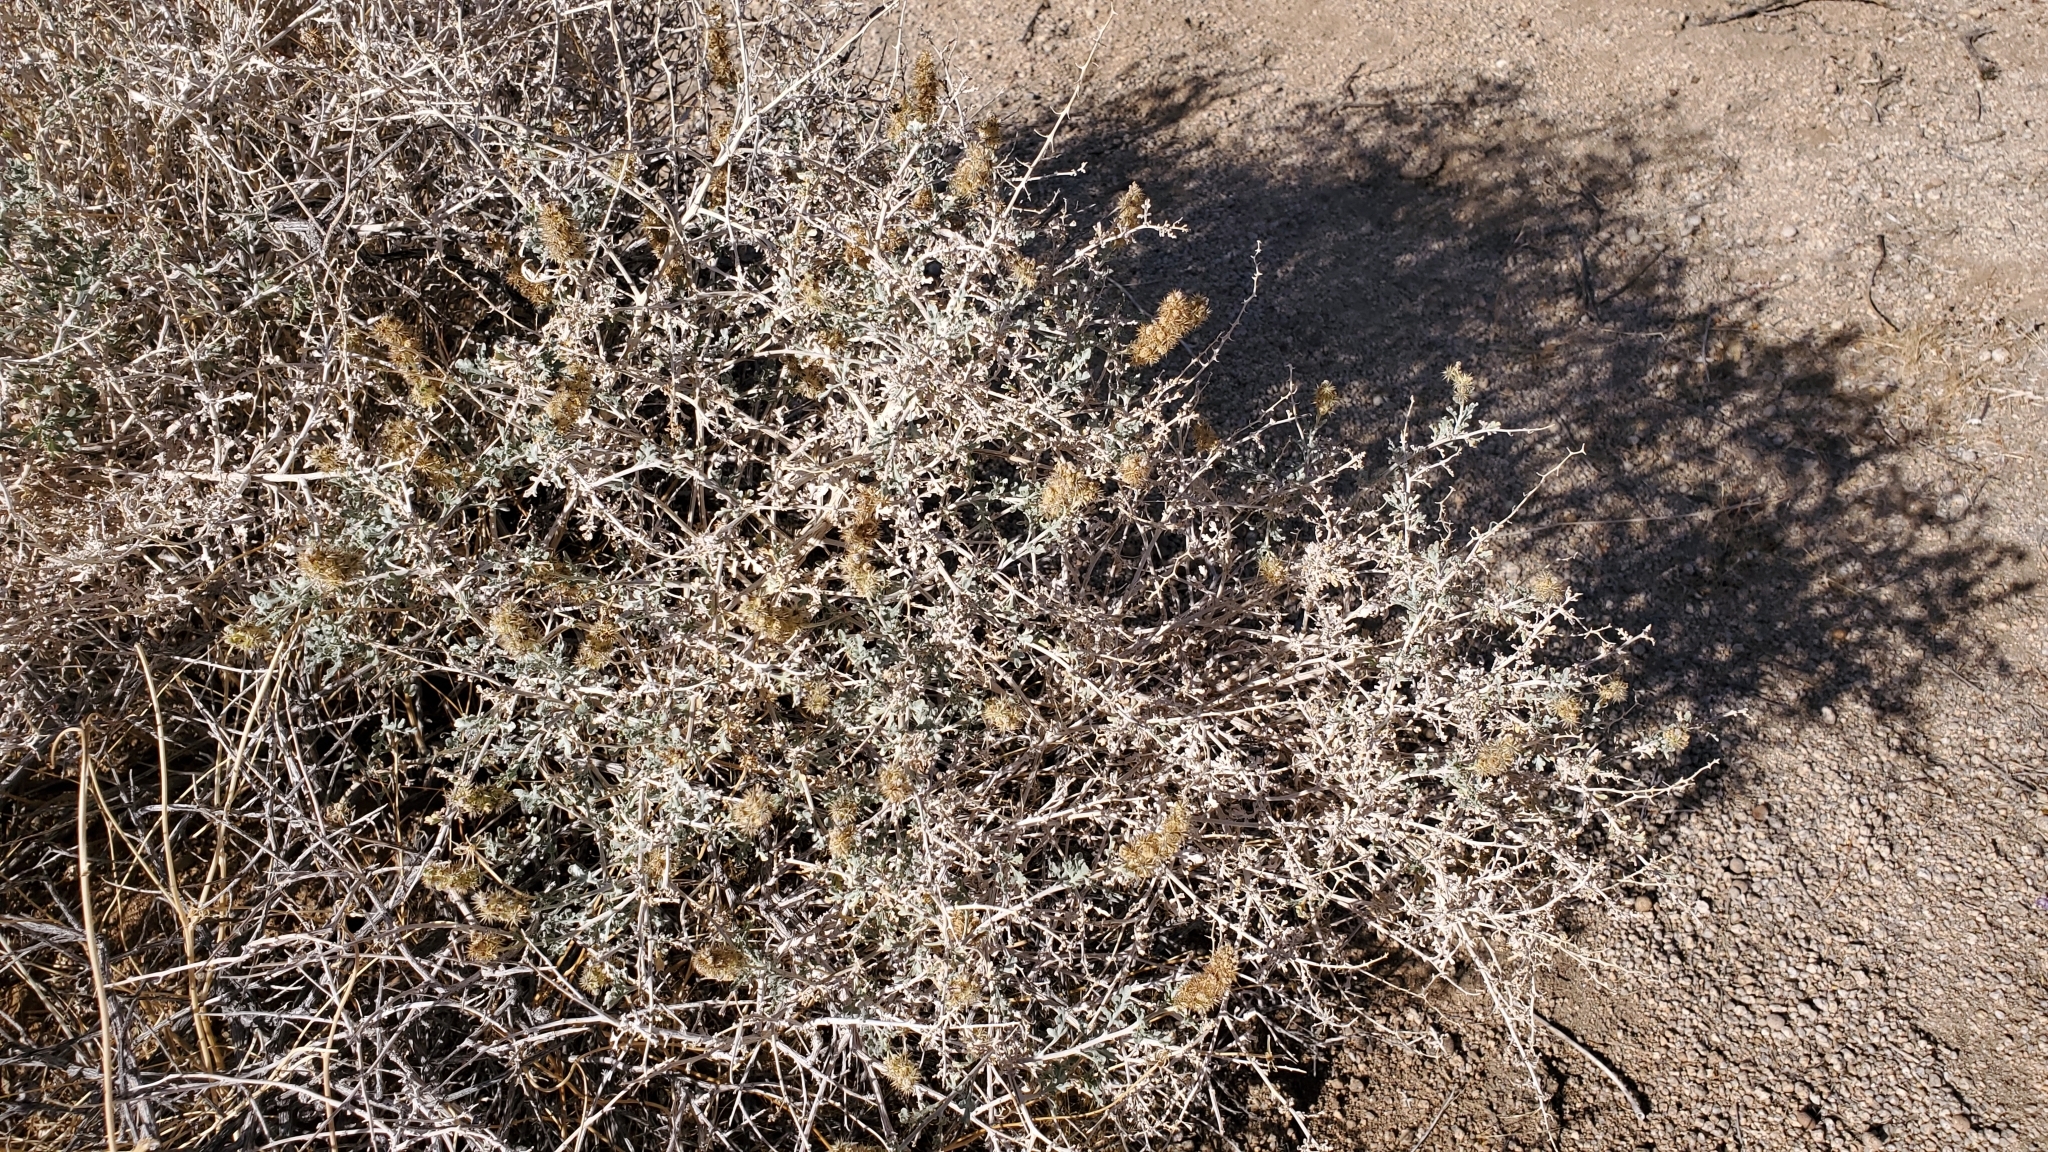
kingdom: Plantae
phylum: Tracheophyta
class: Magnoliopsida
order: Asterales
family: Asteraceae
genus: Ambrosia
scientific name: Ambrosia dumosa
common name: Bur-sage
